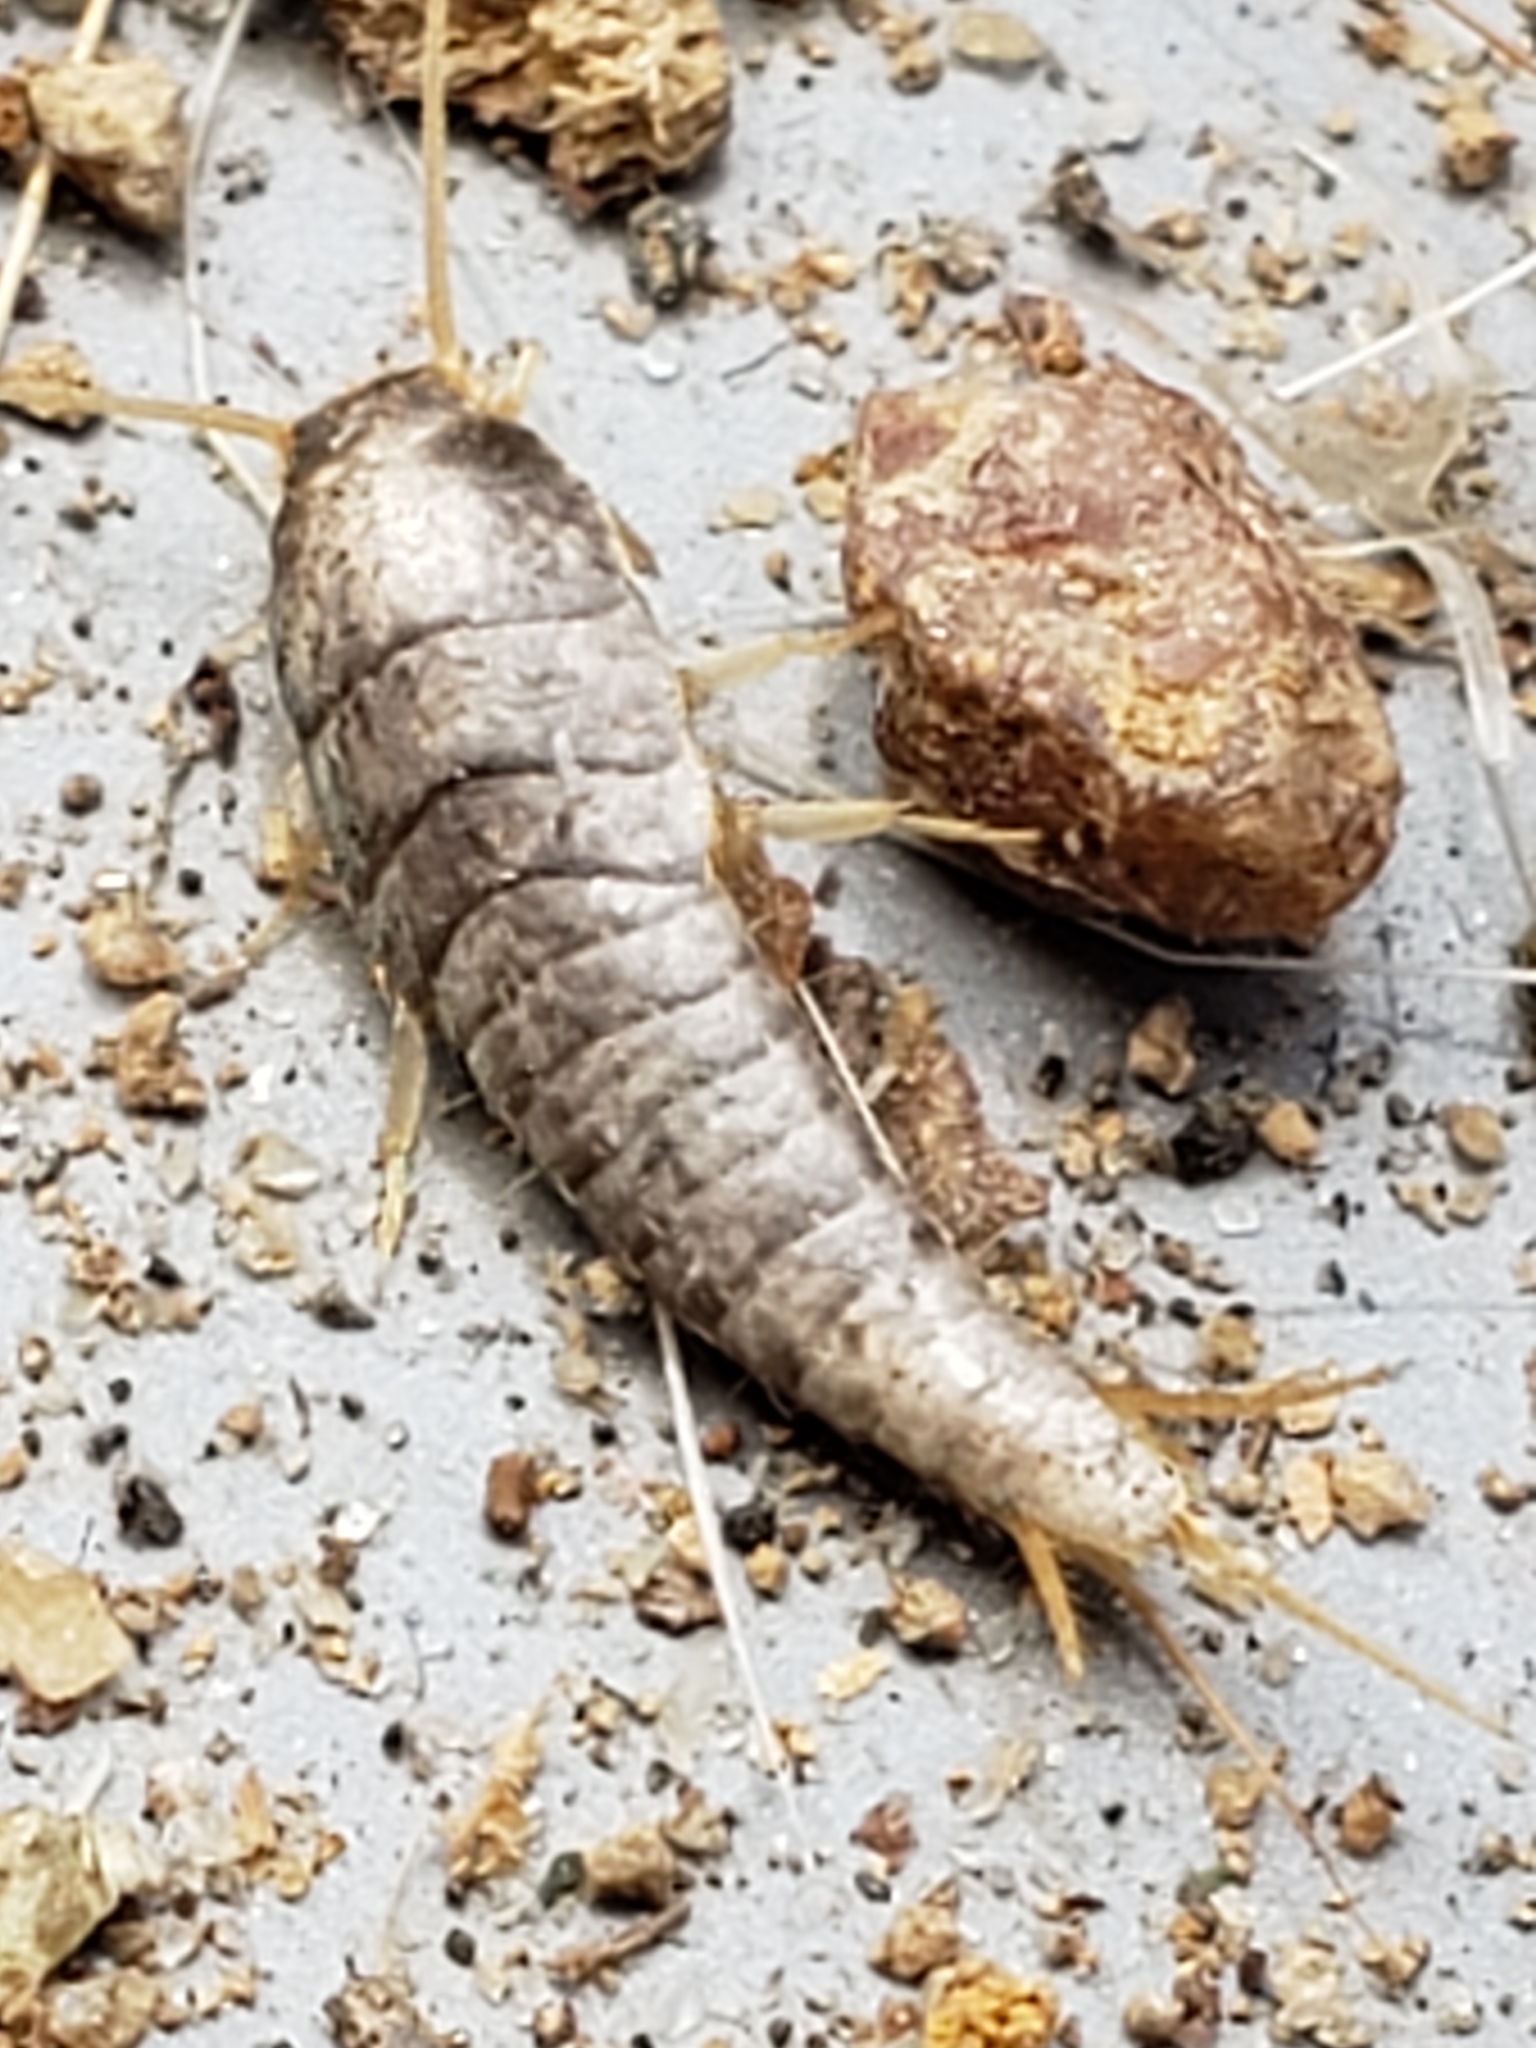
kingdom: Animalia
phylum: Arthropoda
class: Insecta
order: Zygentoma
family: Lepismatidae
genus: Lepisma
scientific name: Lepisma saccharinum
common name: Silverfish
